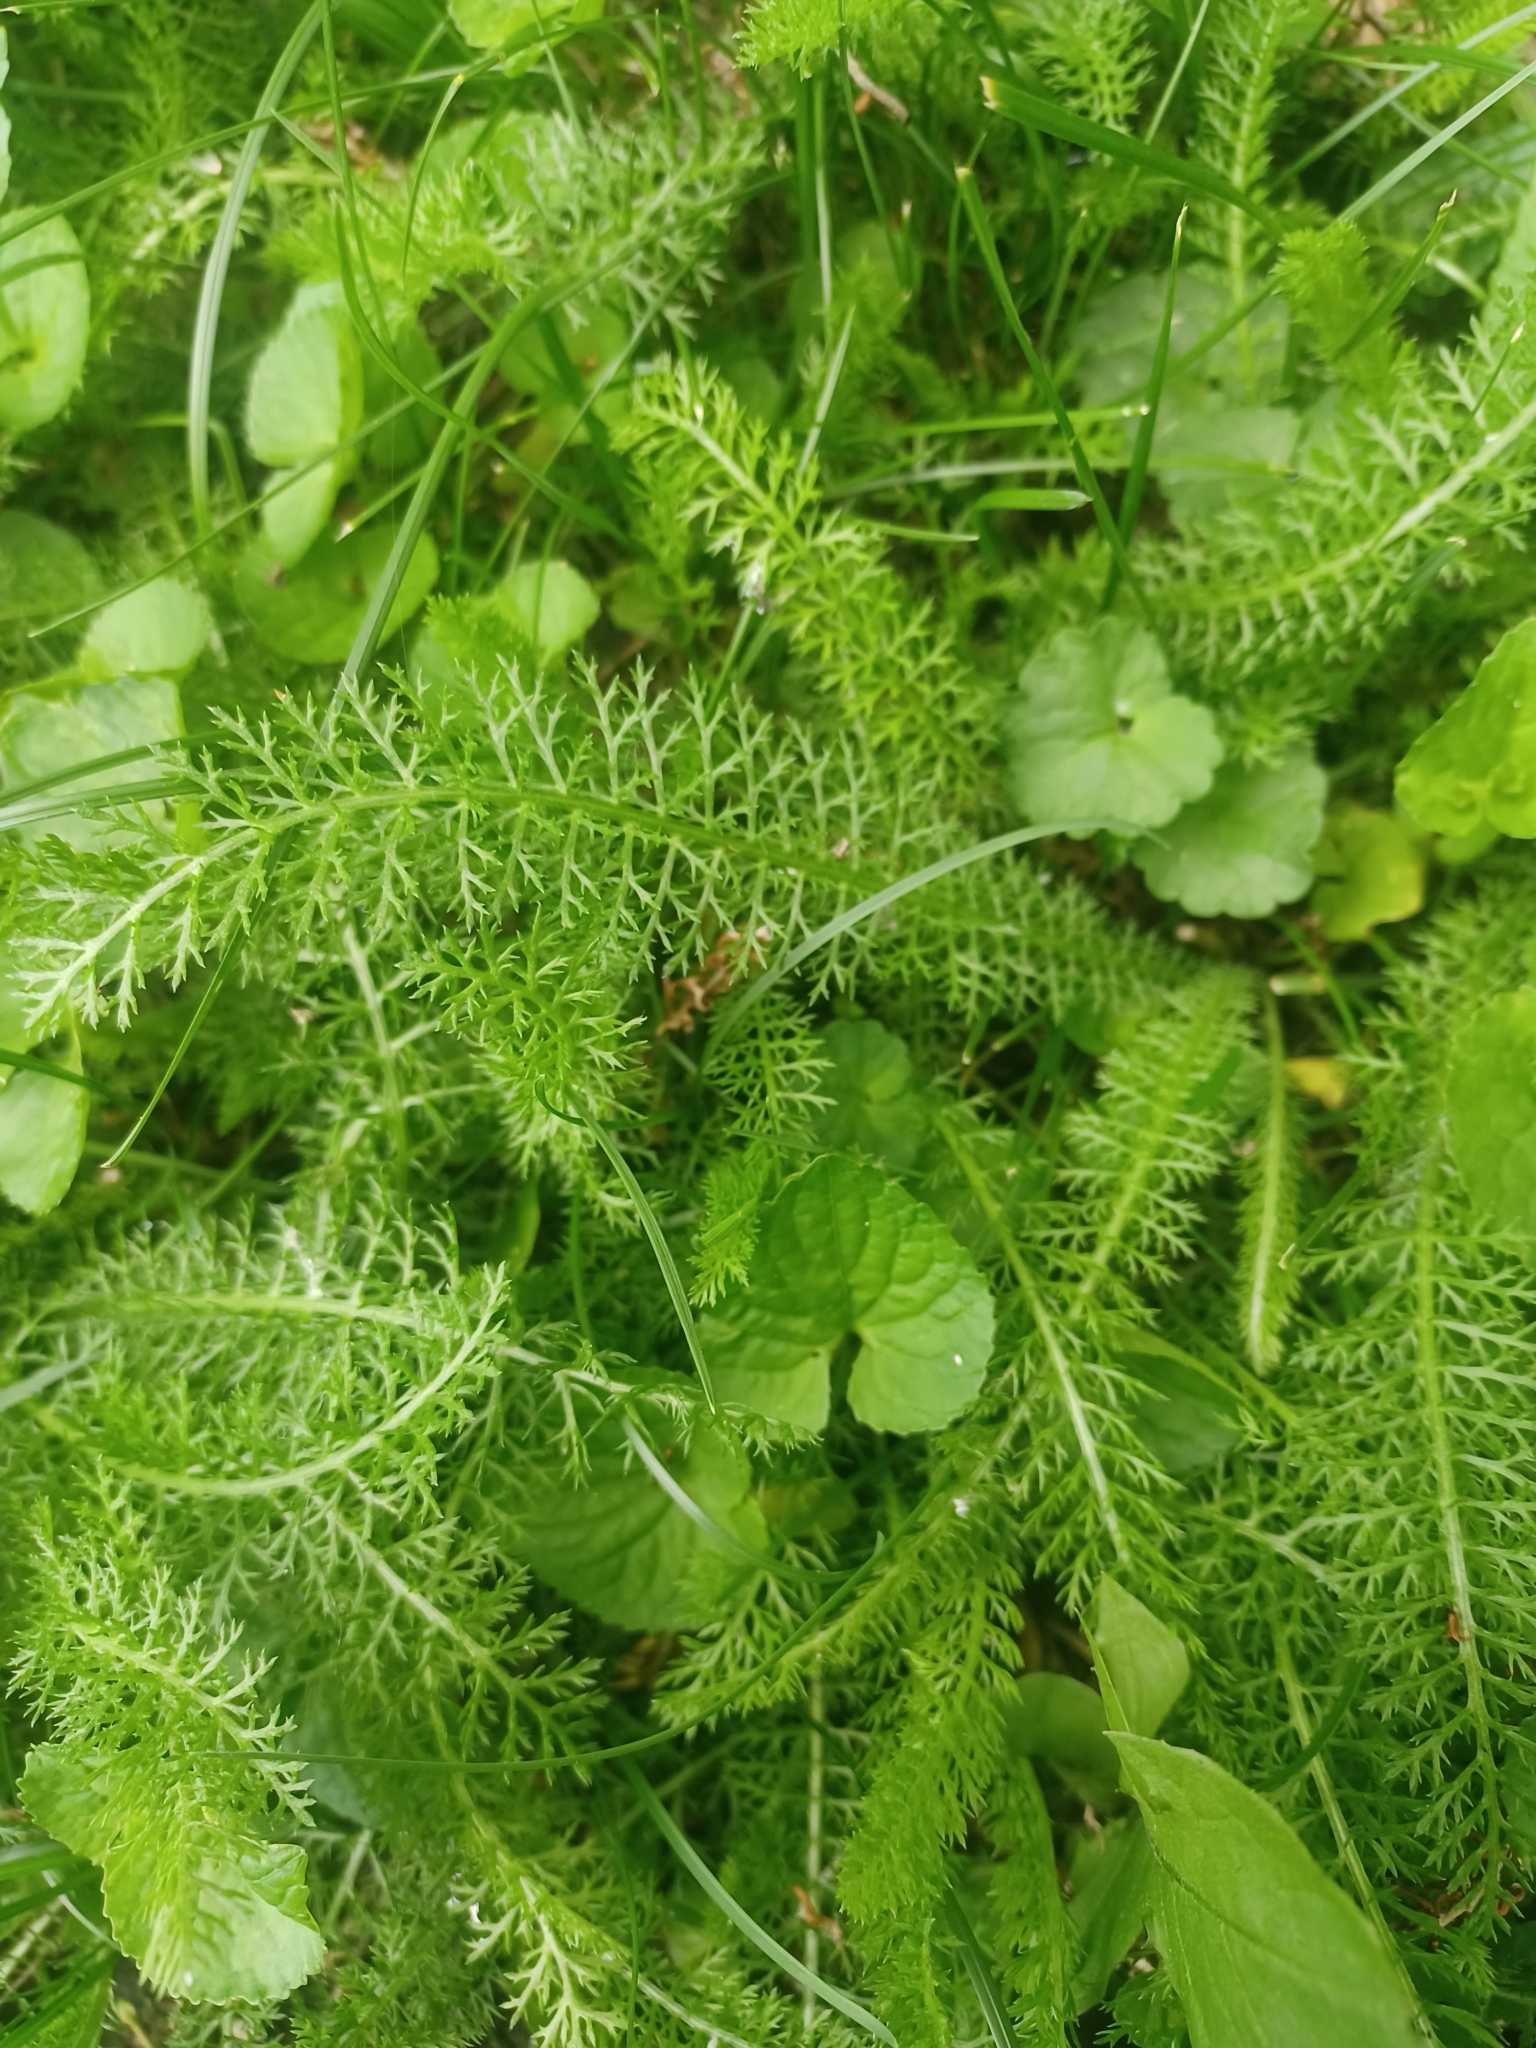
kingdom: Plantae
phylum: Tracheophyta
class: Magnoliopsida
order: Asterales
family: Asteraceae
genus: Achillea
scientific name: Achillea millefolium
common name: Yarrow
